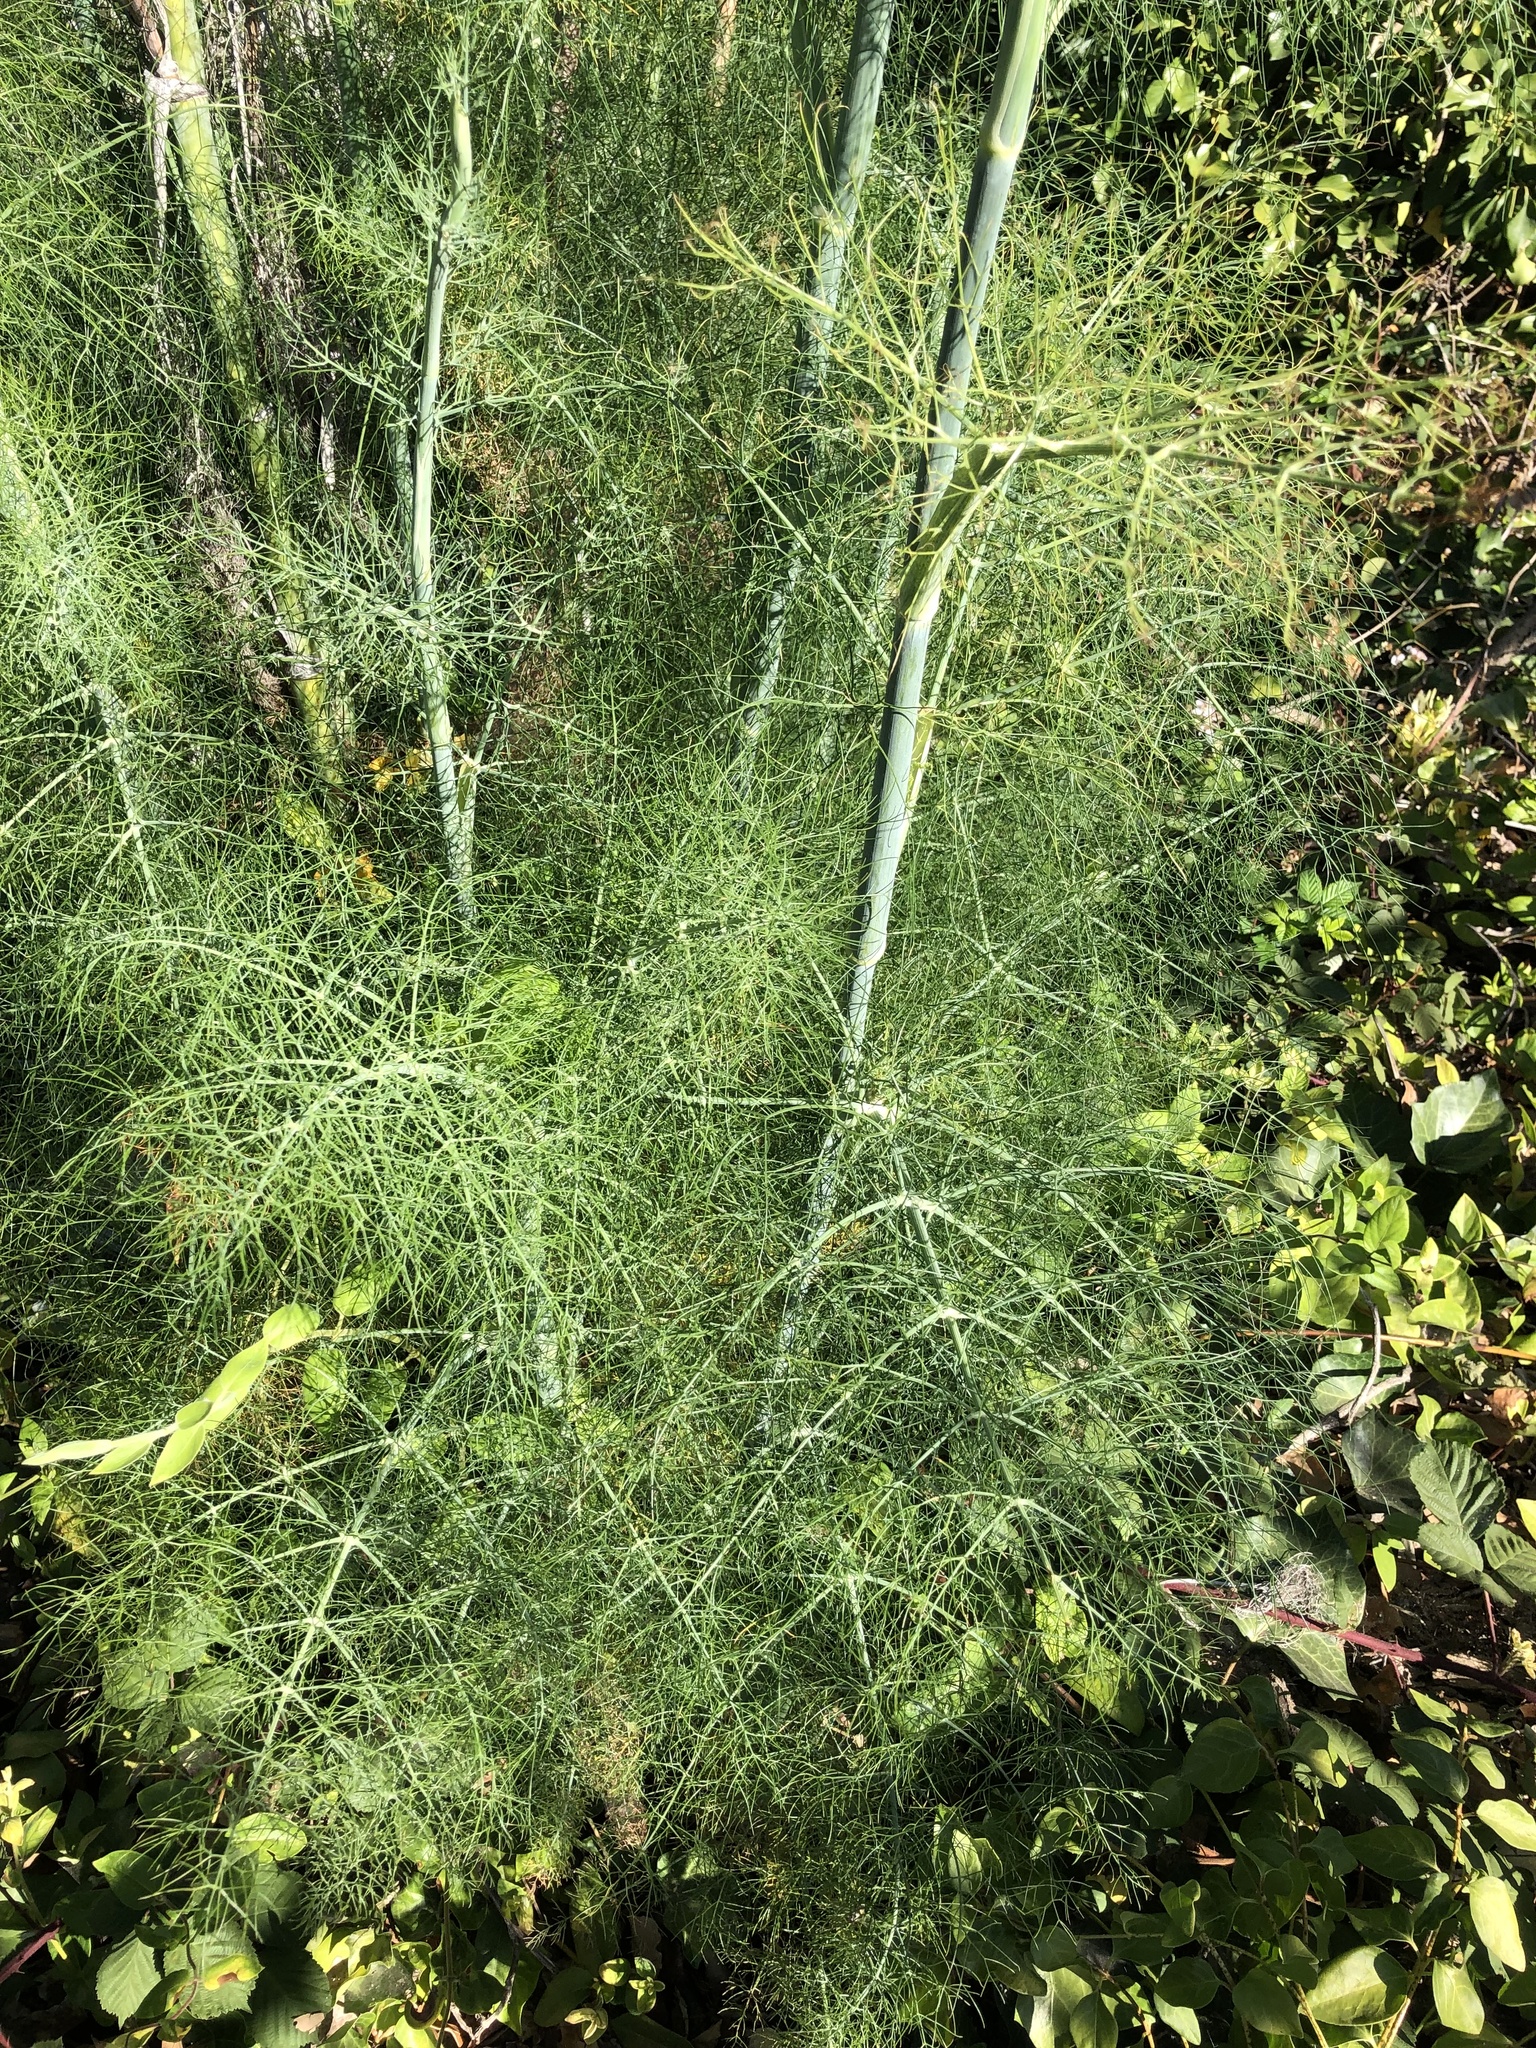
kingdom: Plantae
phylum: Tracheophyta
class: Magnoliopsida
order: Apiales
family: Apiaceae
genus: Foeniculum
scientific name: Foeniculum vulgare
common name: Fennel
